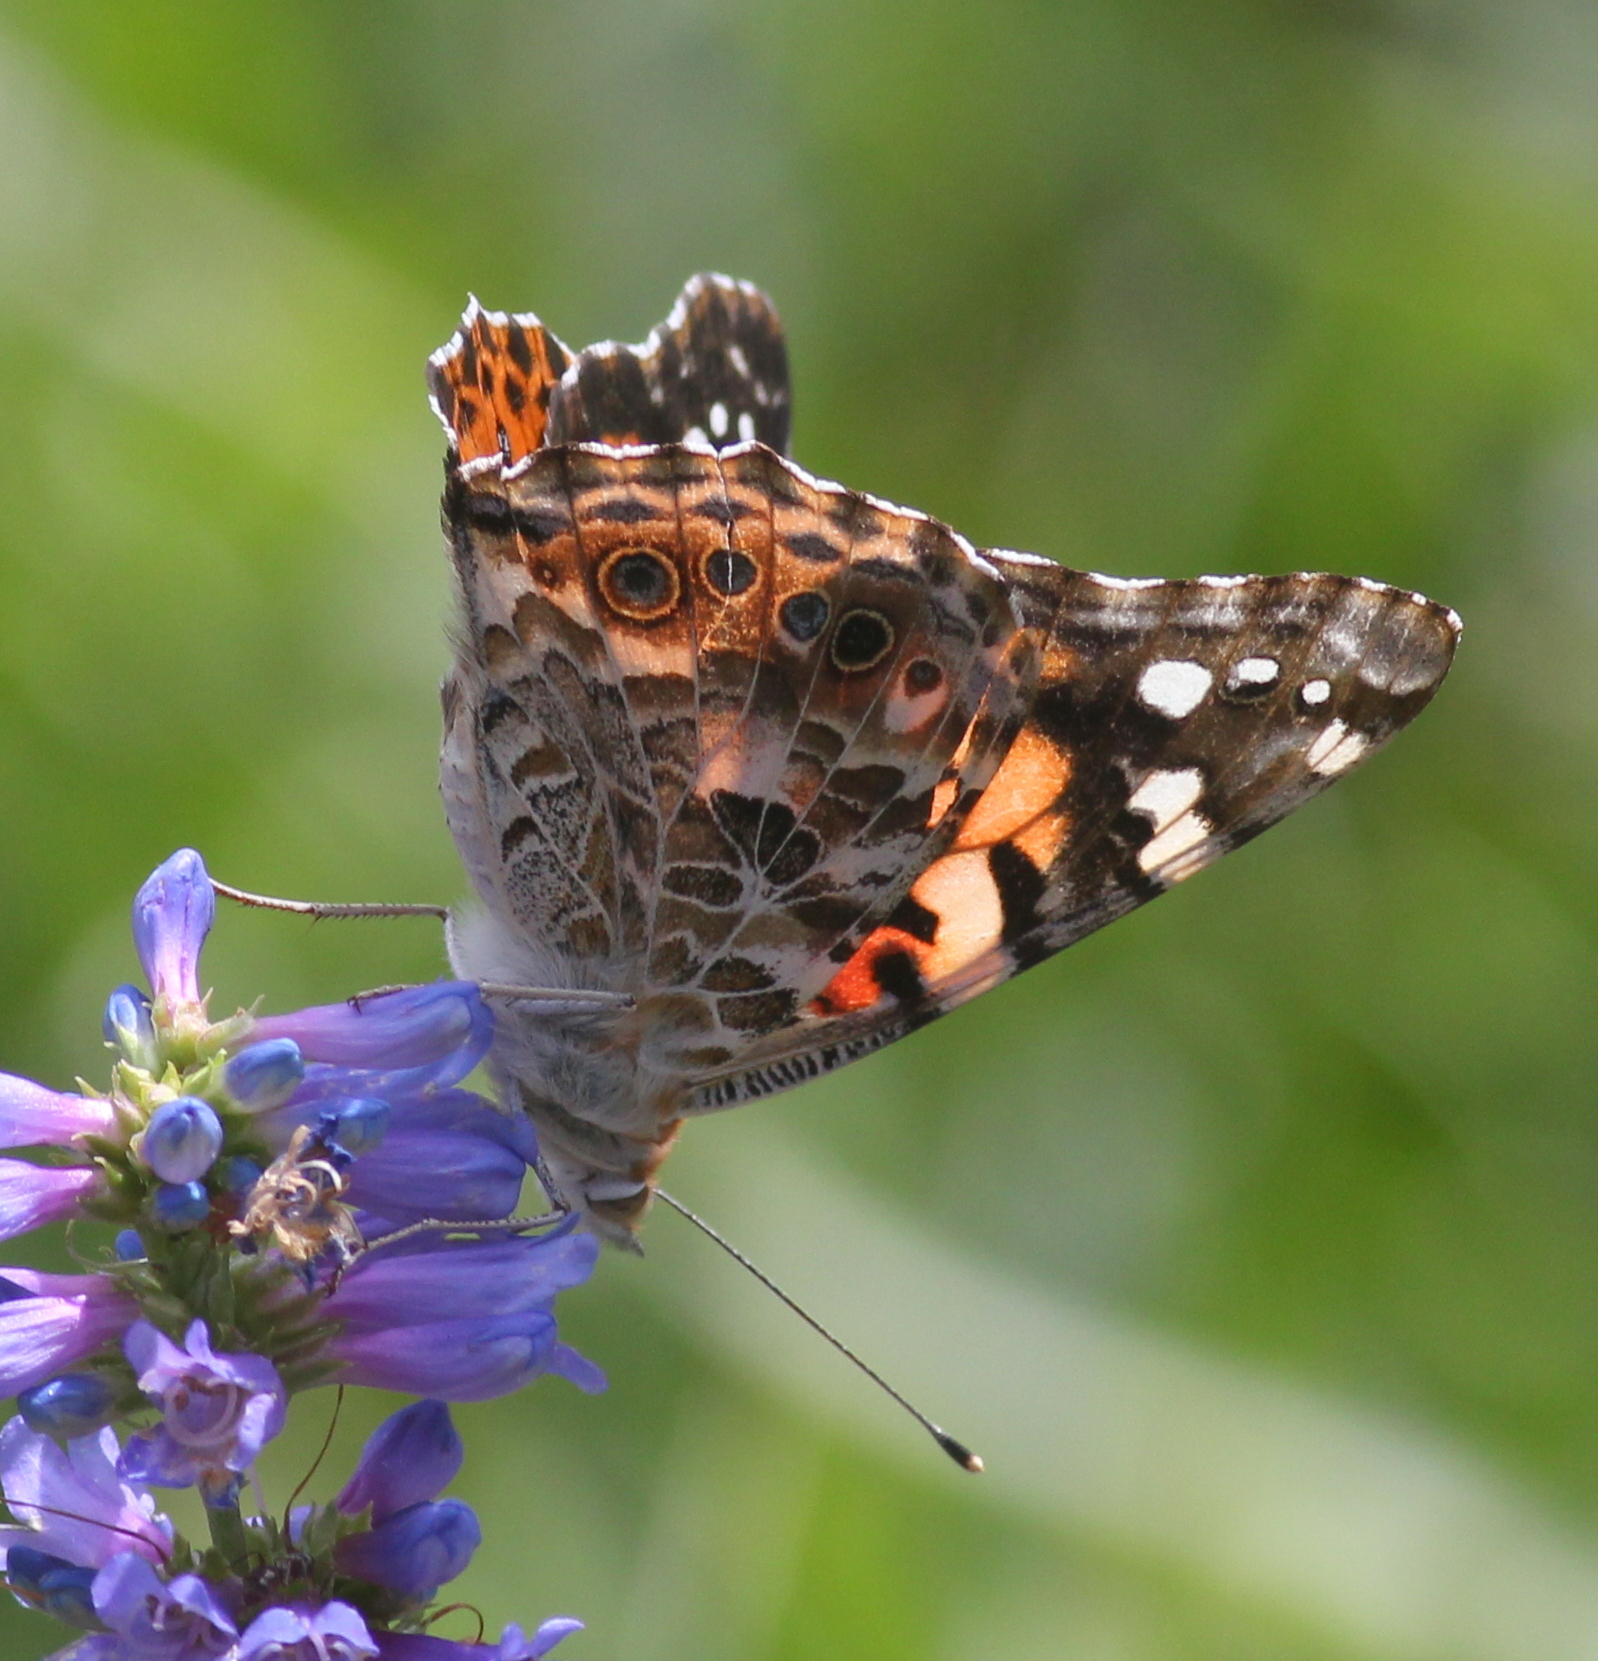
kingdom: Animalia
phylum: Arthropoda
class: Insecta
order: Lepidoptera
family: Nymphalidae
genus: Vanessa
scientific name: Vanessa cardui
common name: Painted lady
